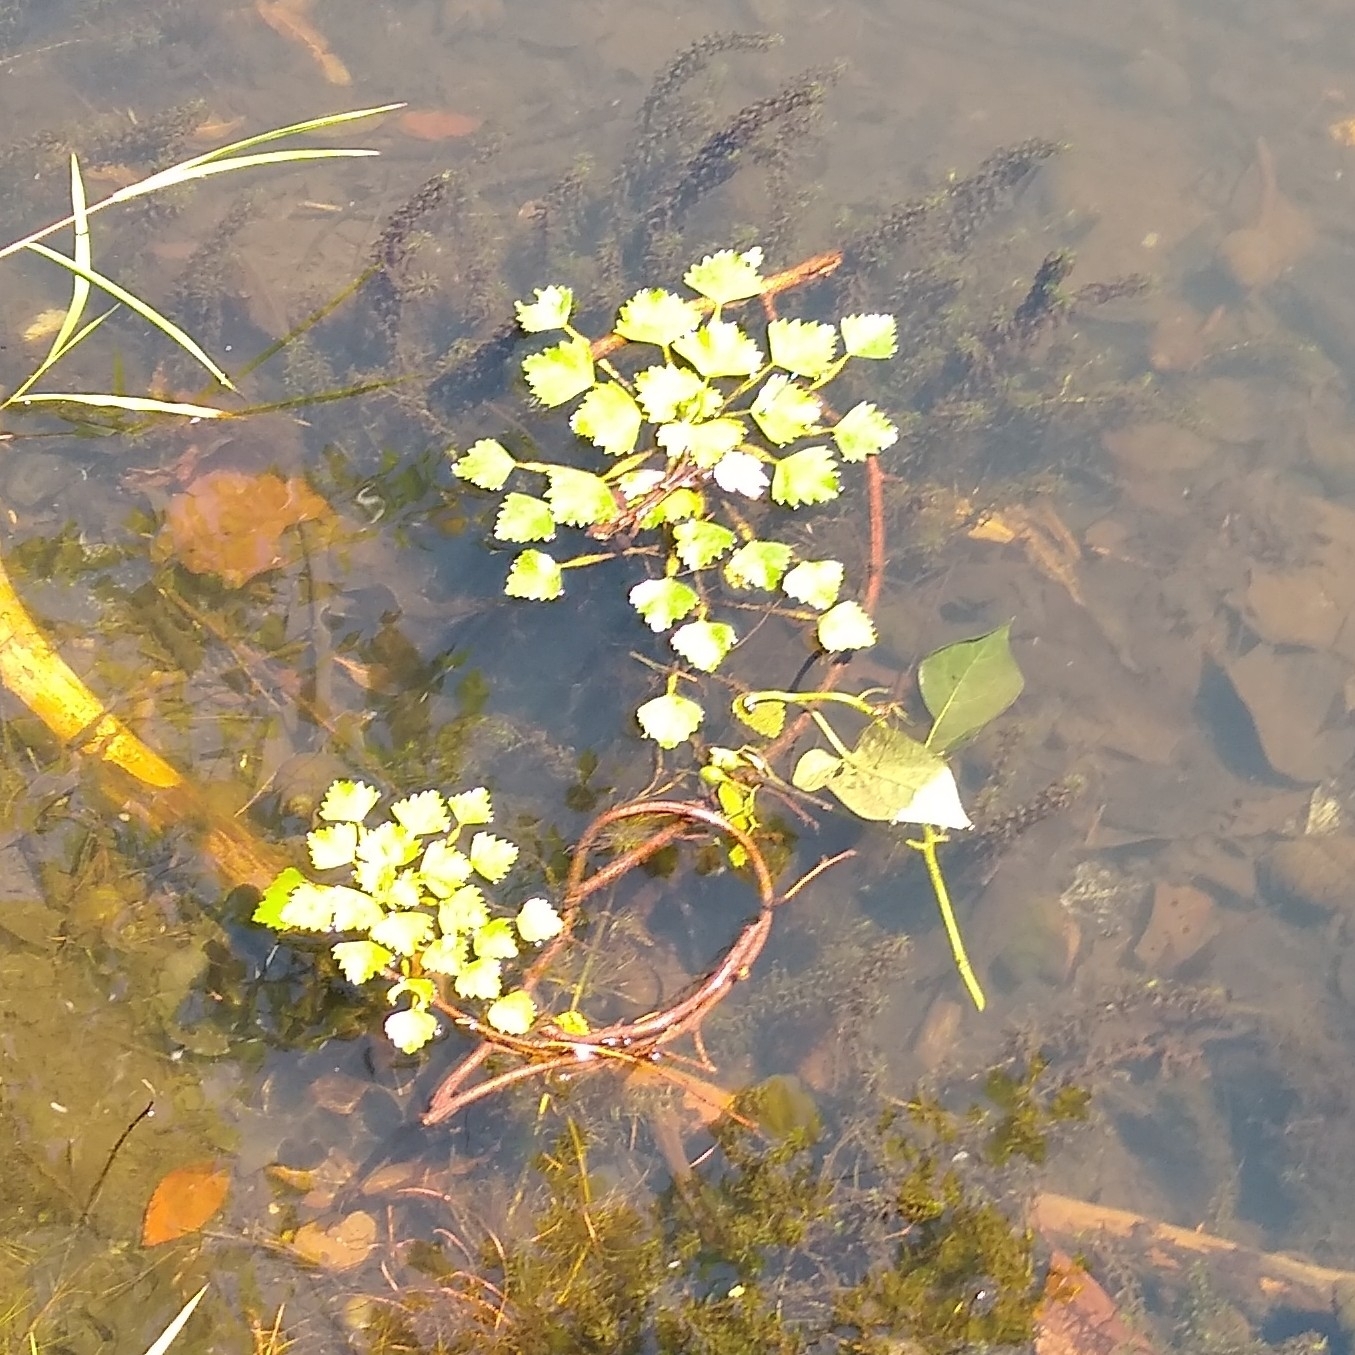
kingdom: Plantae
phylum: Tracheophyta
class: Magnoliopsida
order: Myrtales
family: Lythraceae
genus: Trapa
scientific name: Trapa natans
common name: Water chestnut
